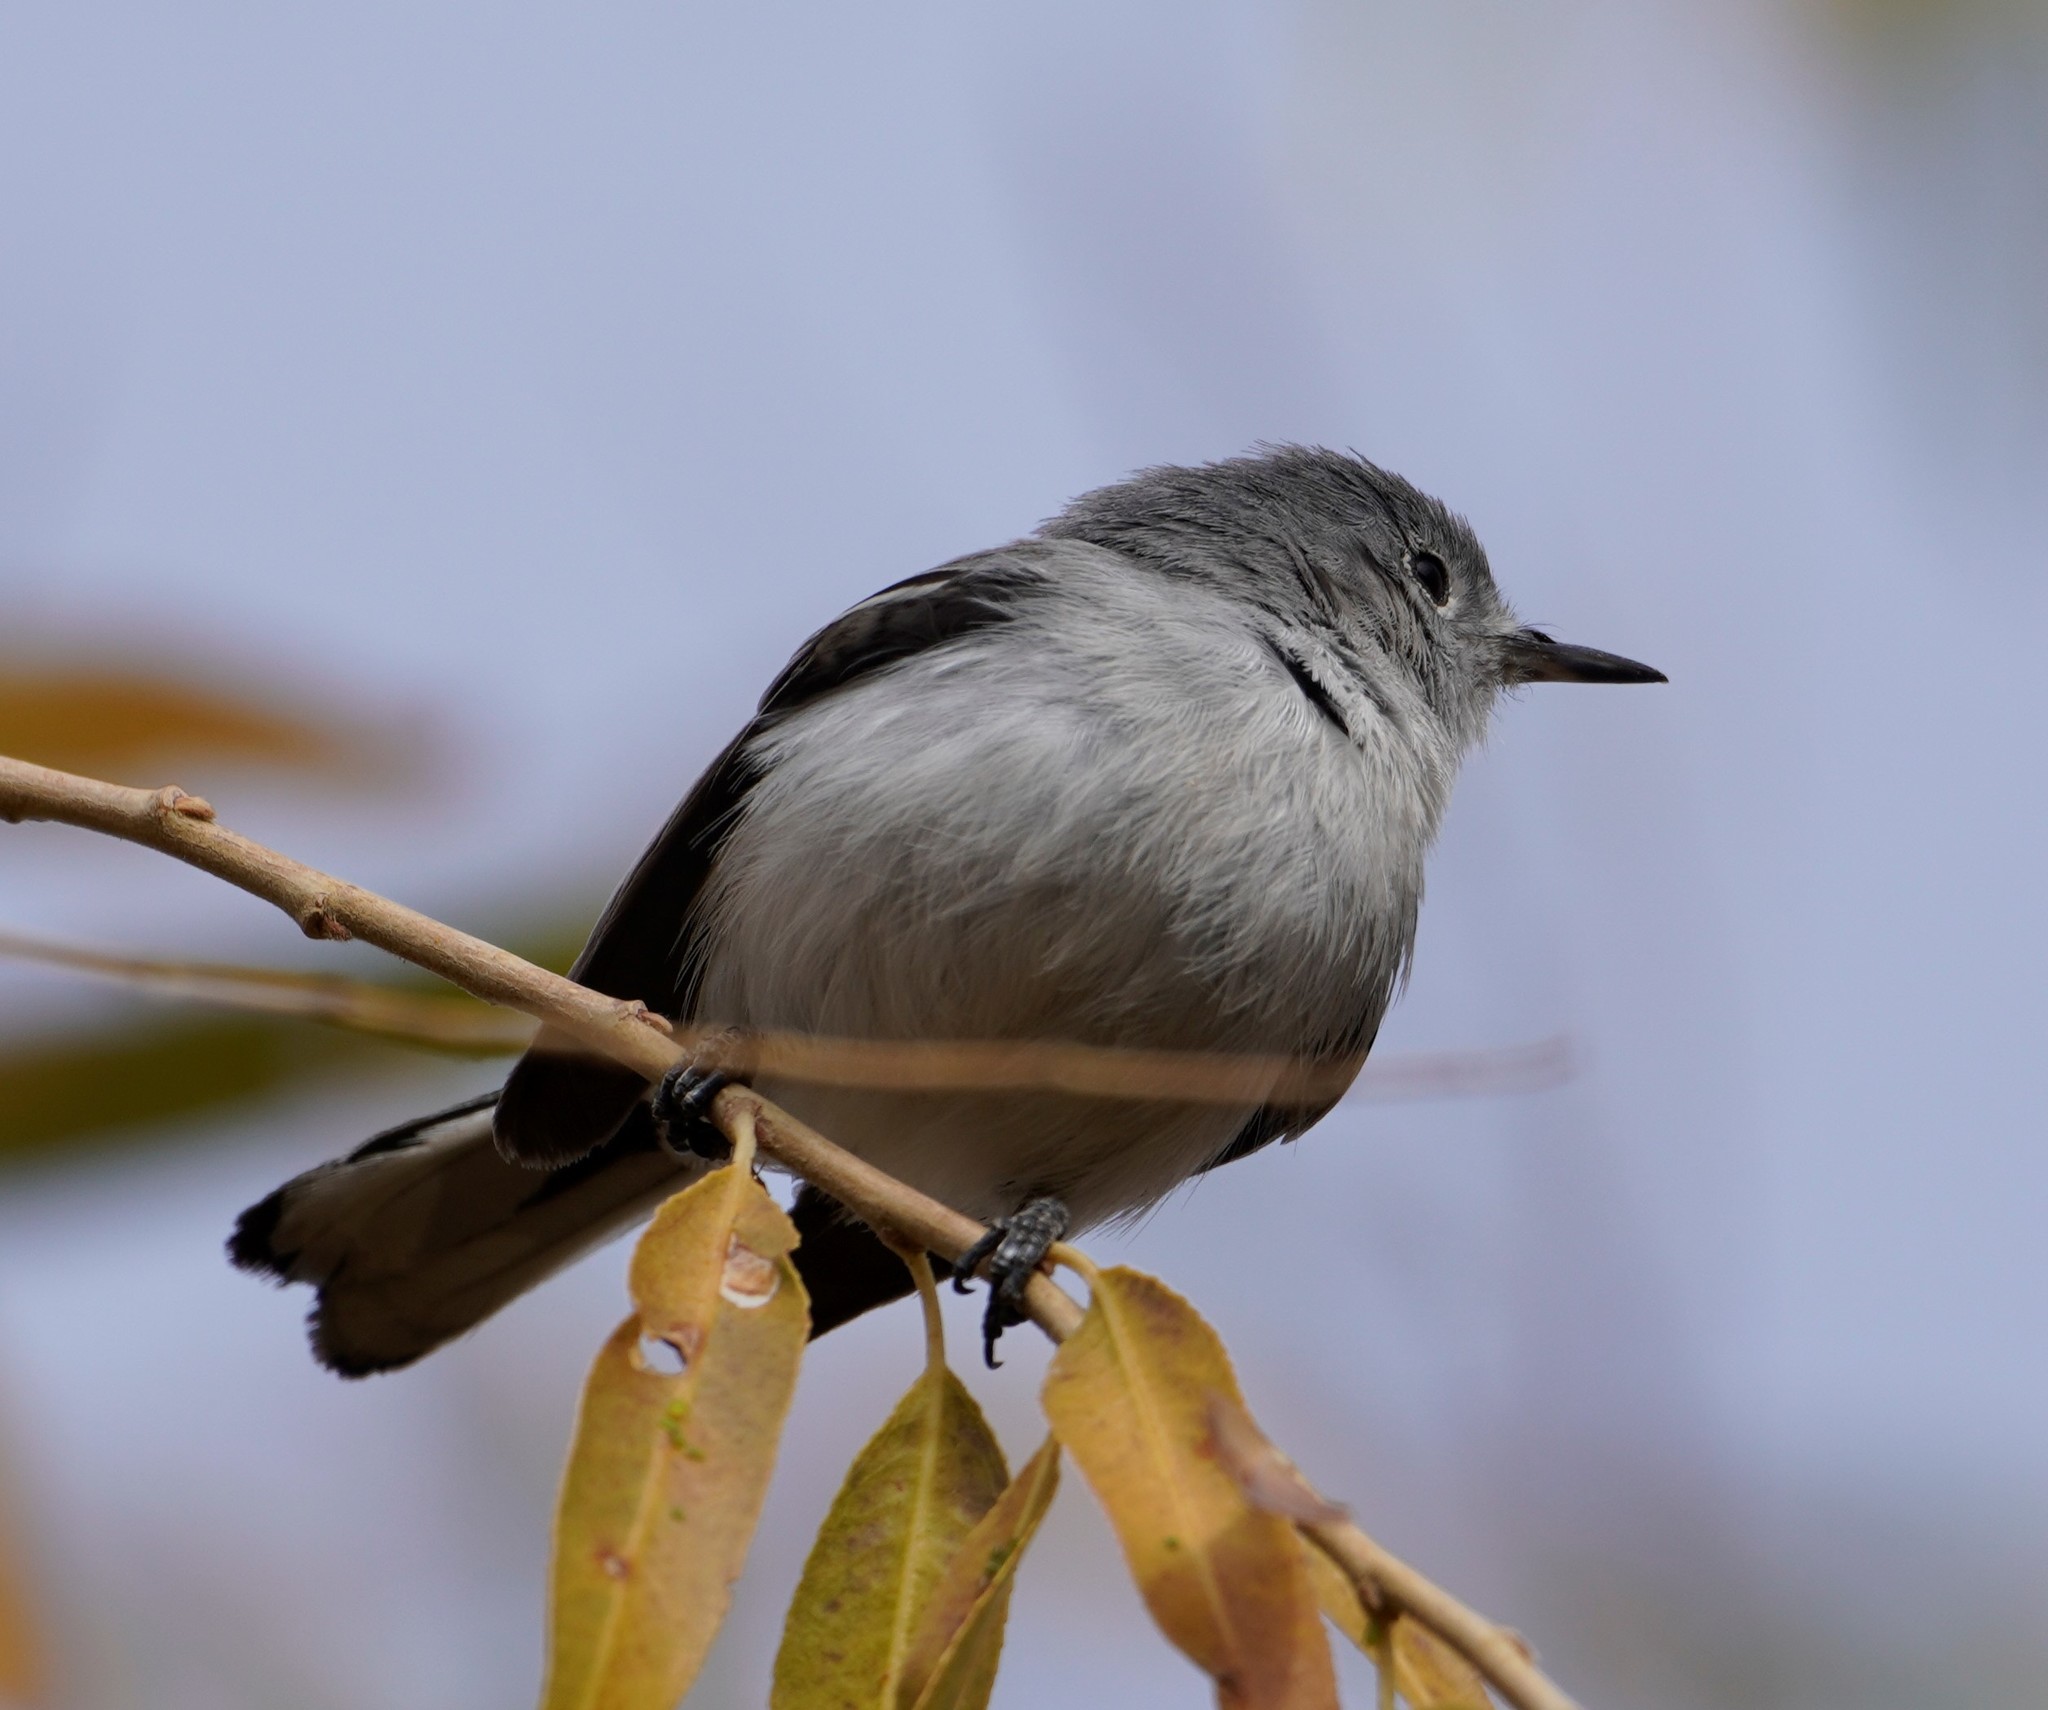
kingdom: Animalia
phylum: Chordata
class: Aves
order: Passeriformes
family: Polioptilidae
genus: Polioptila
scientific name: Polioptila caerulea
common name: Blue-gray gnatcatcher
